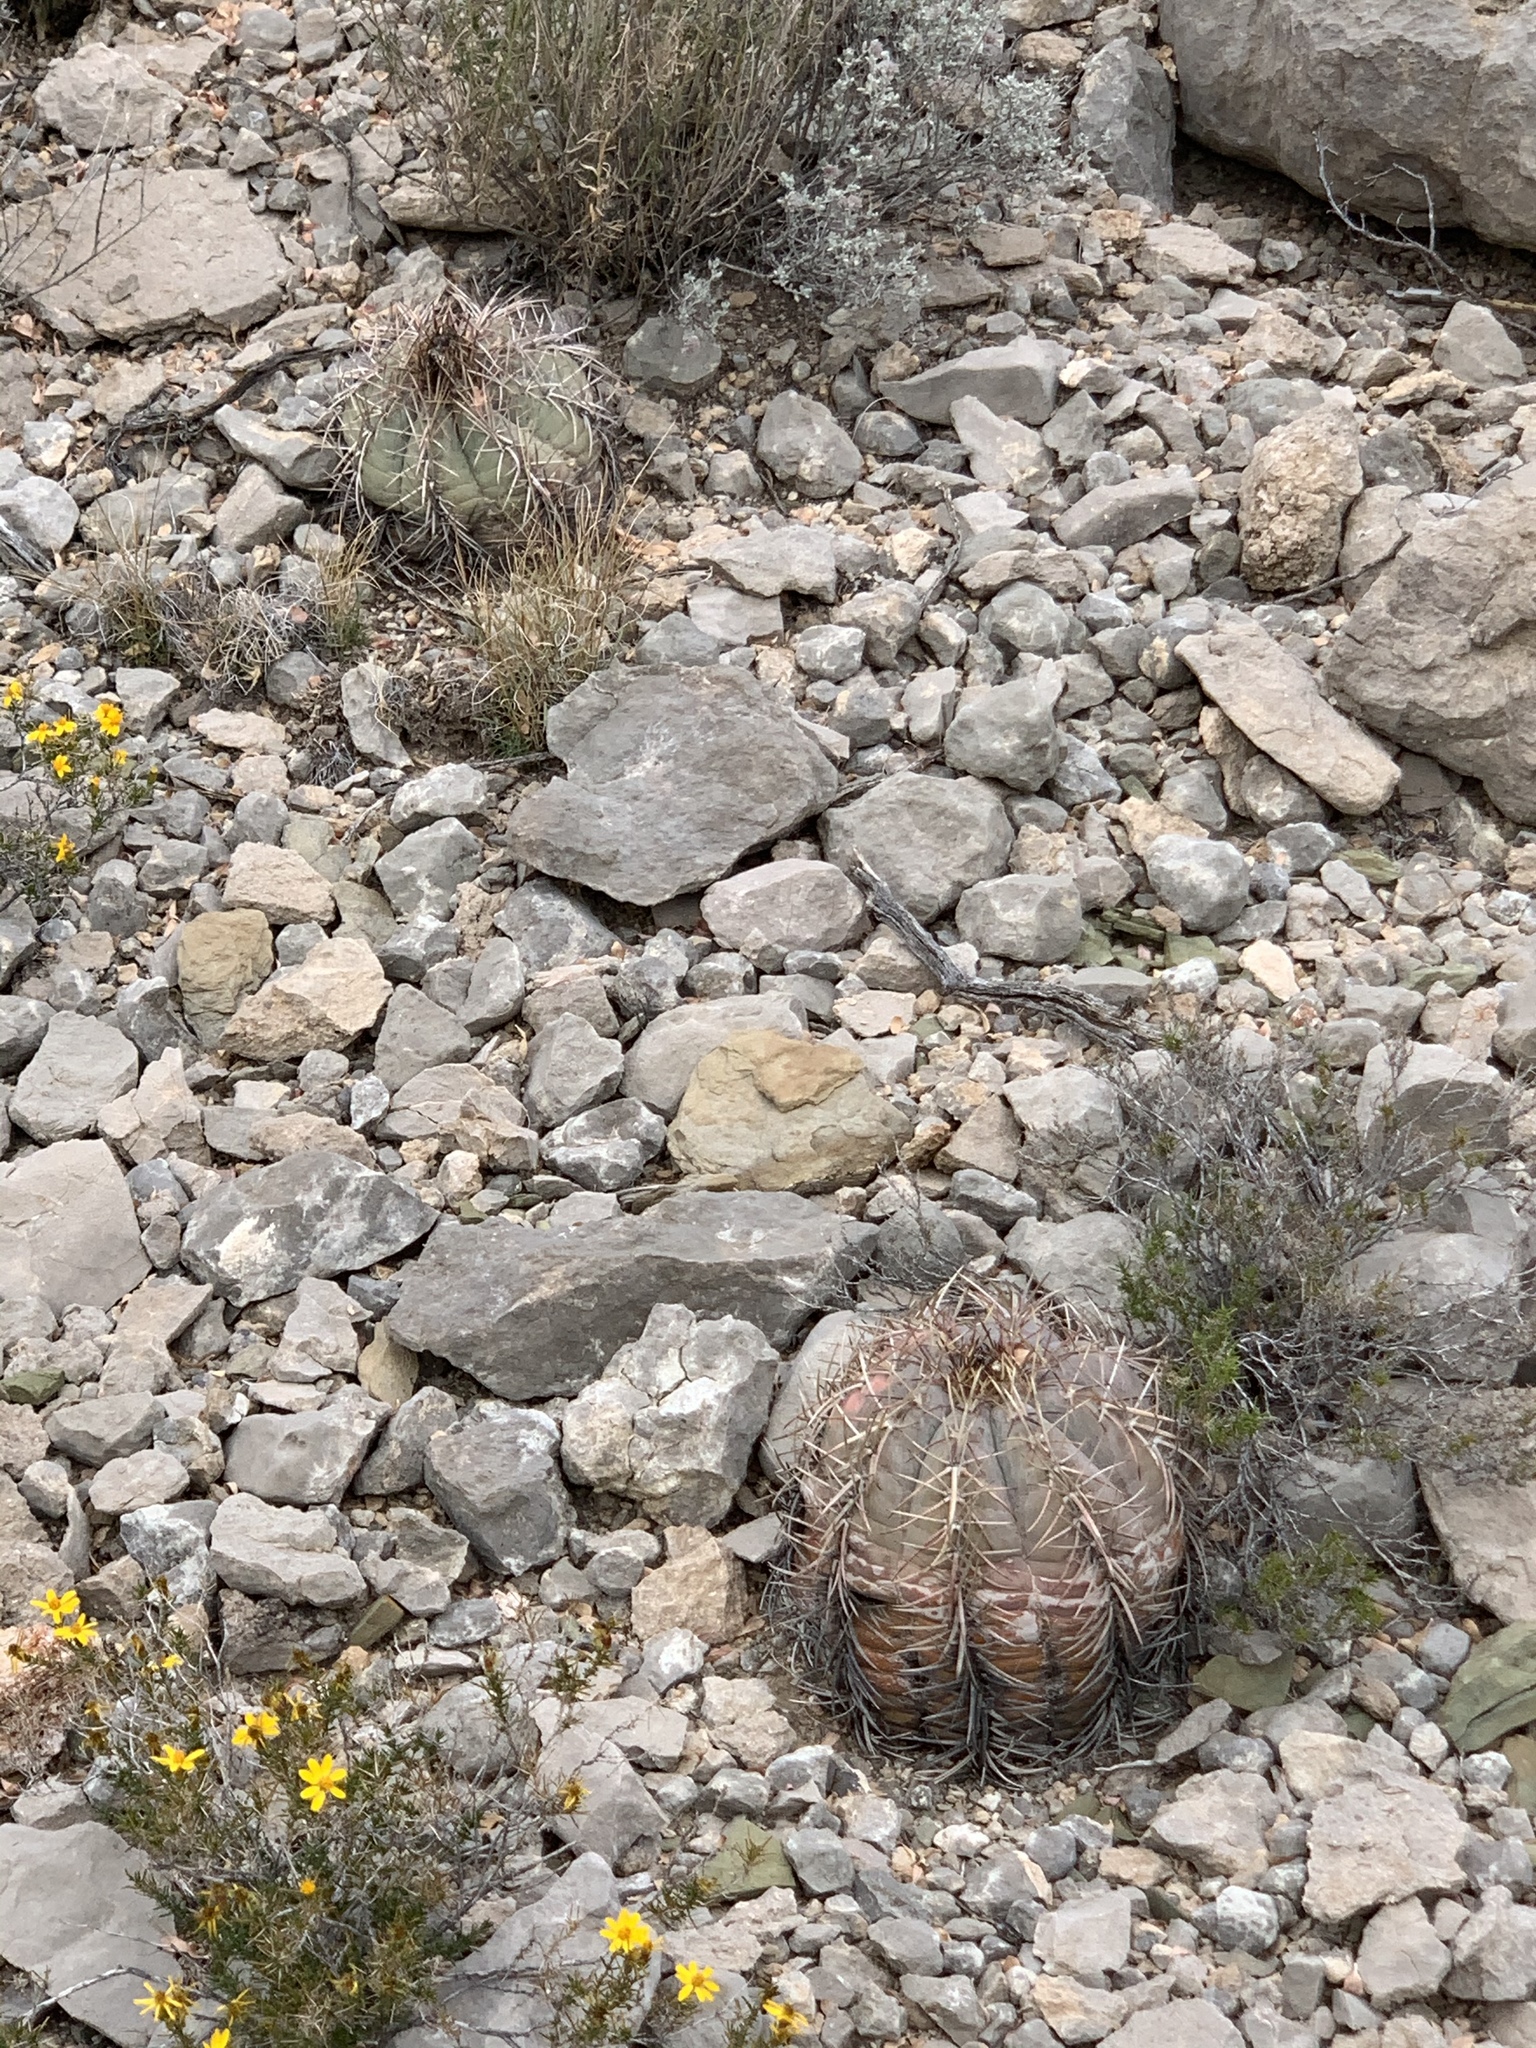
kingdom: Plantae
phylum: Tracheophyta
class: Magnoliopsida
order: Caryophyllales
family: Cactaceae
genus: Echinocactus
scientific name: Echinocactus horizonthalonius
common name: Devilshead
